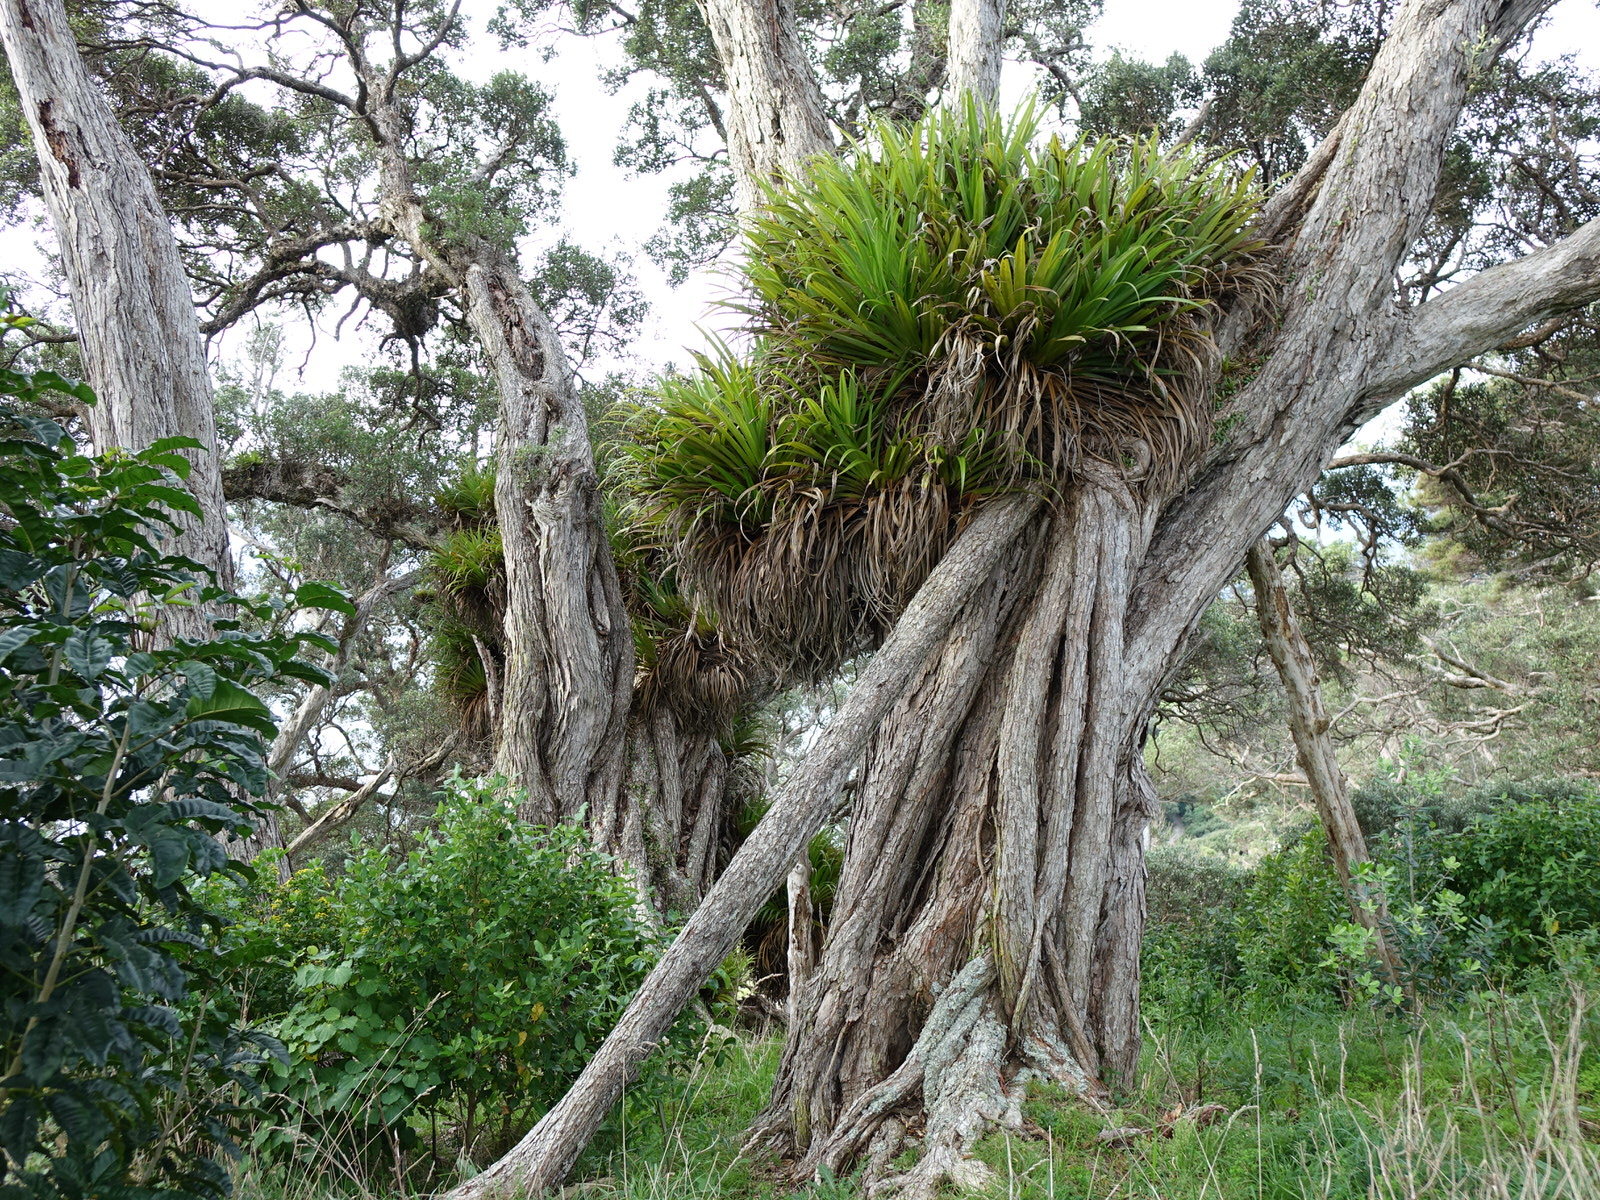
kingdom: Plantae
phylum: Tracheophyta
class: Liliopsida
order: Asparagales
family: Asteliaceae
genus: Astelia
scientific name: Astelia hastata
